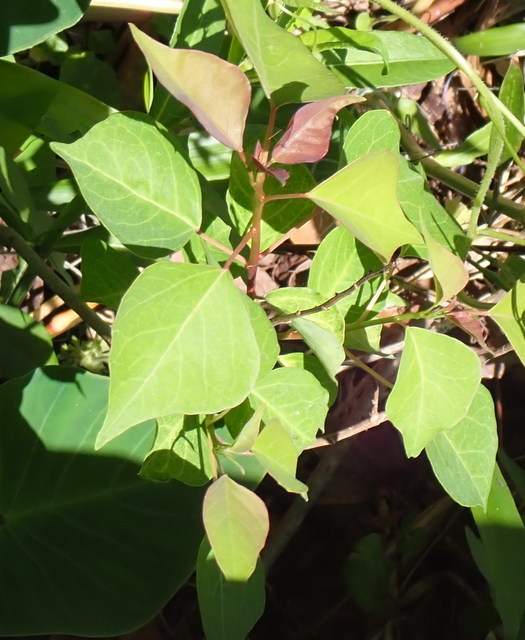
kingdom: Plantae
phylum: Tracheophyta
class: Magnoliopsida
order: Malpighiales
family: Euphorbiaceae
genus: Triadica
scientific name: Triadica sebifera
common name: Chinese tallow
